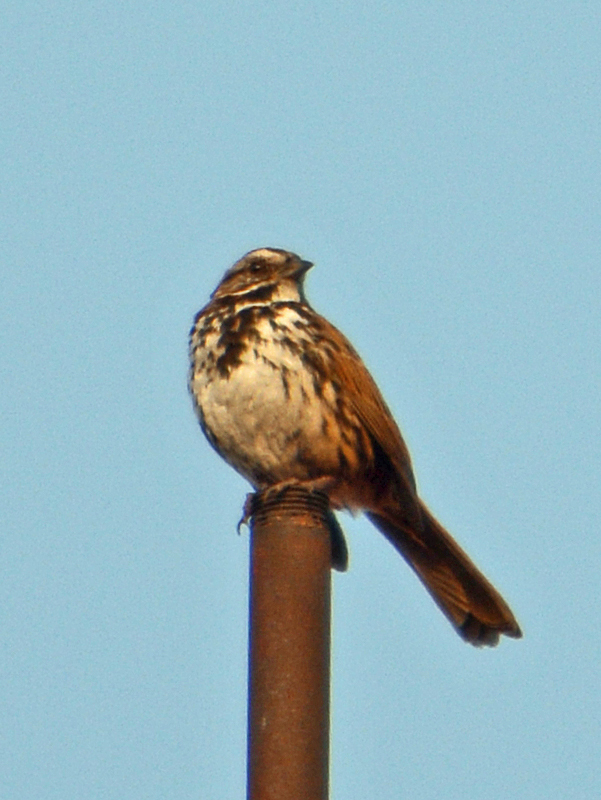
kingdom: Animalia
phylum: Chordata
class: Aves
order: Passeriformes
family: Passerellidae
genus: Melospiza
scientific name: Melospiza melodia
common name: Song sparrow
